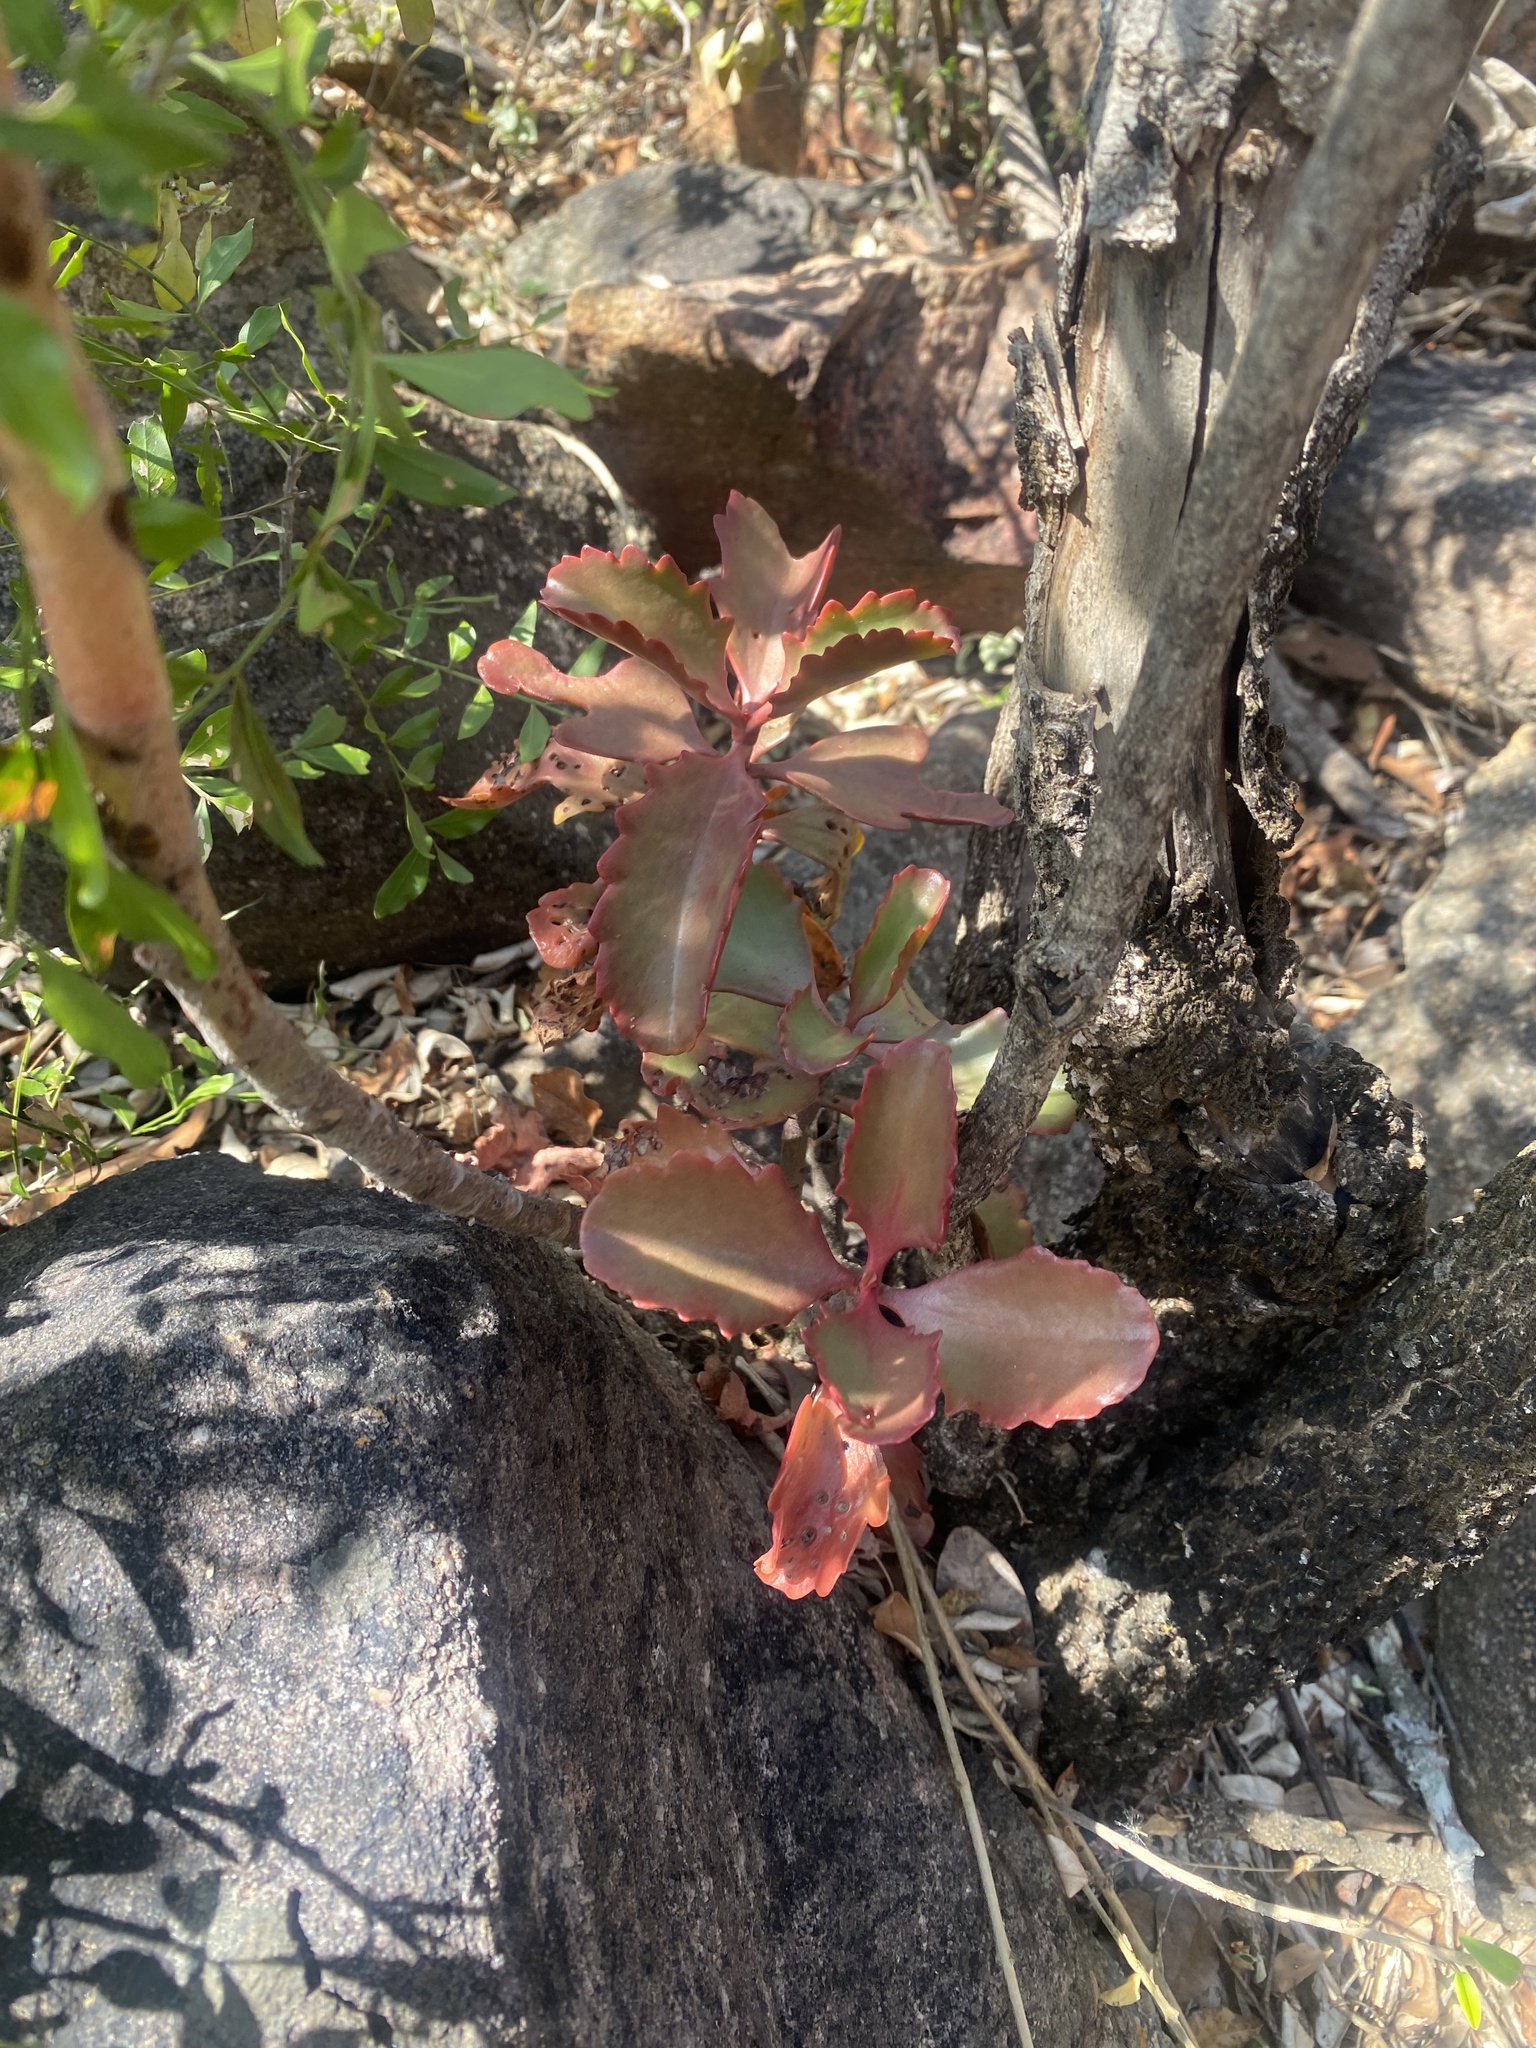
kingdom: Plantae
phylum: Tracheophyta
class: Magnoliopsida
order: Saxifragales
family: Crassulaceae
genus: Kalanchoe
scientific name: Kalanchoe sexangularis
